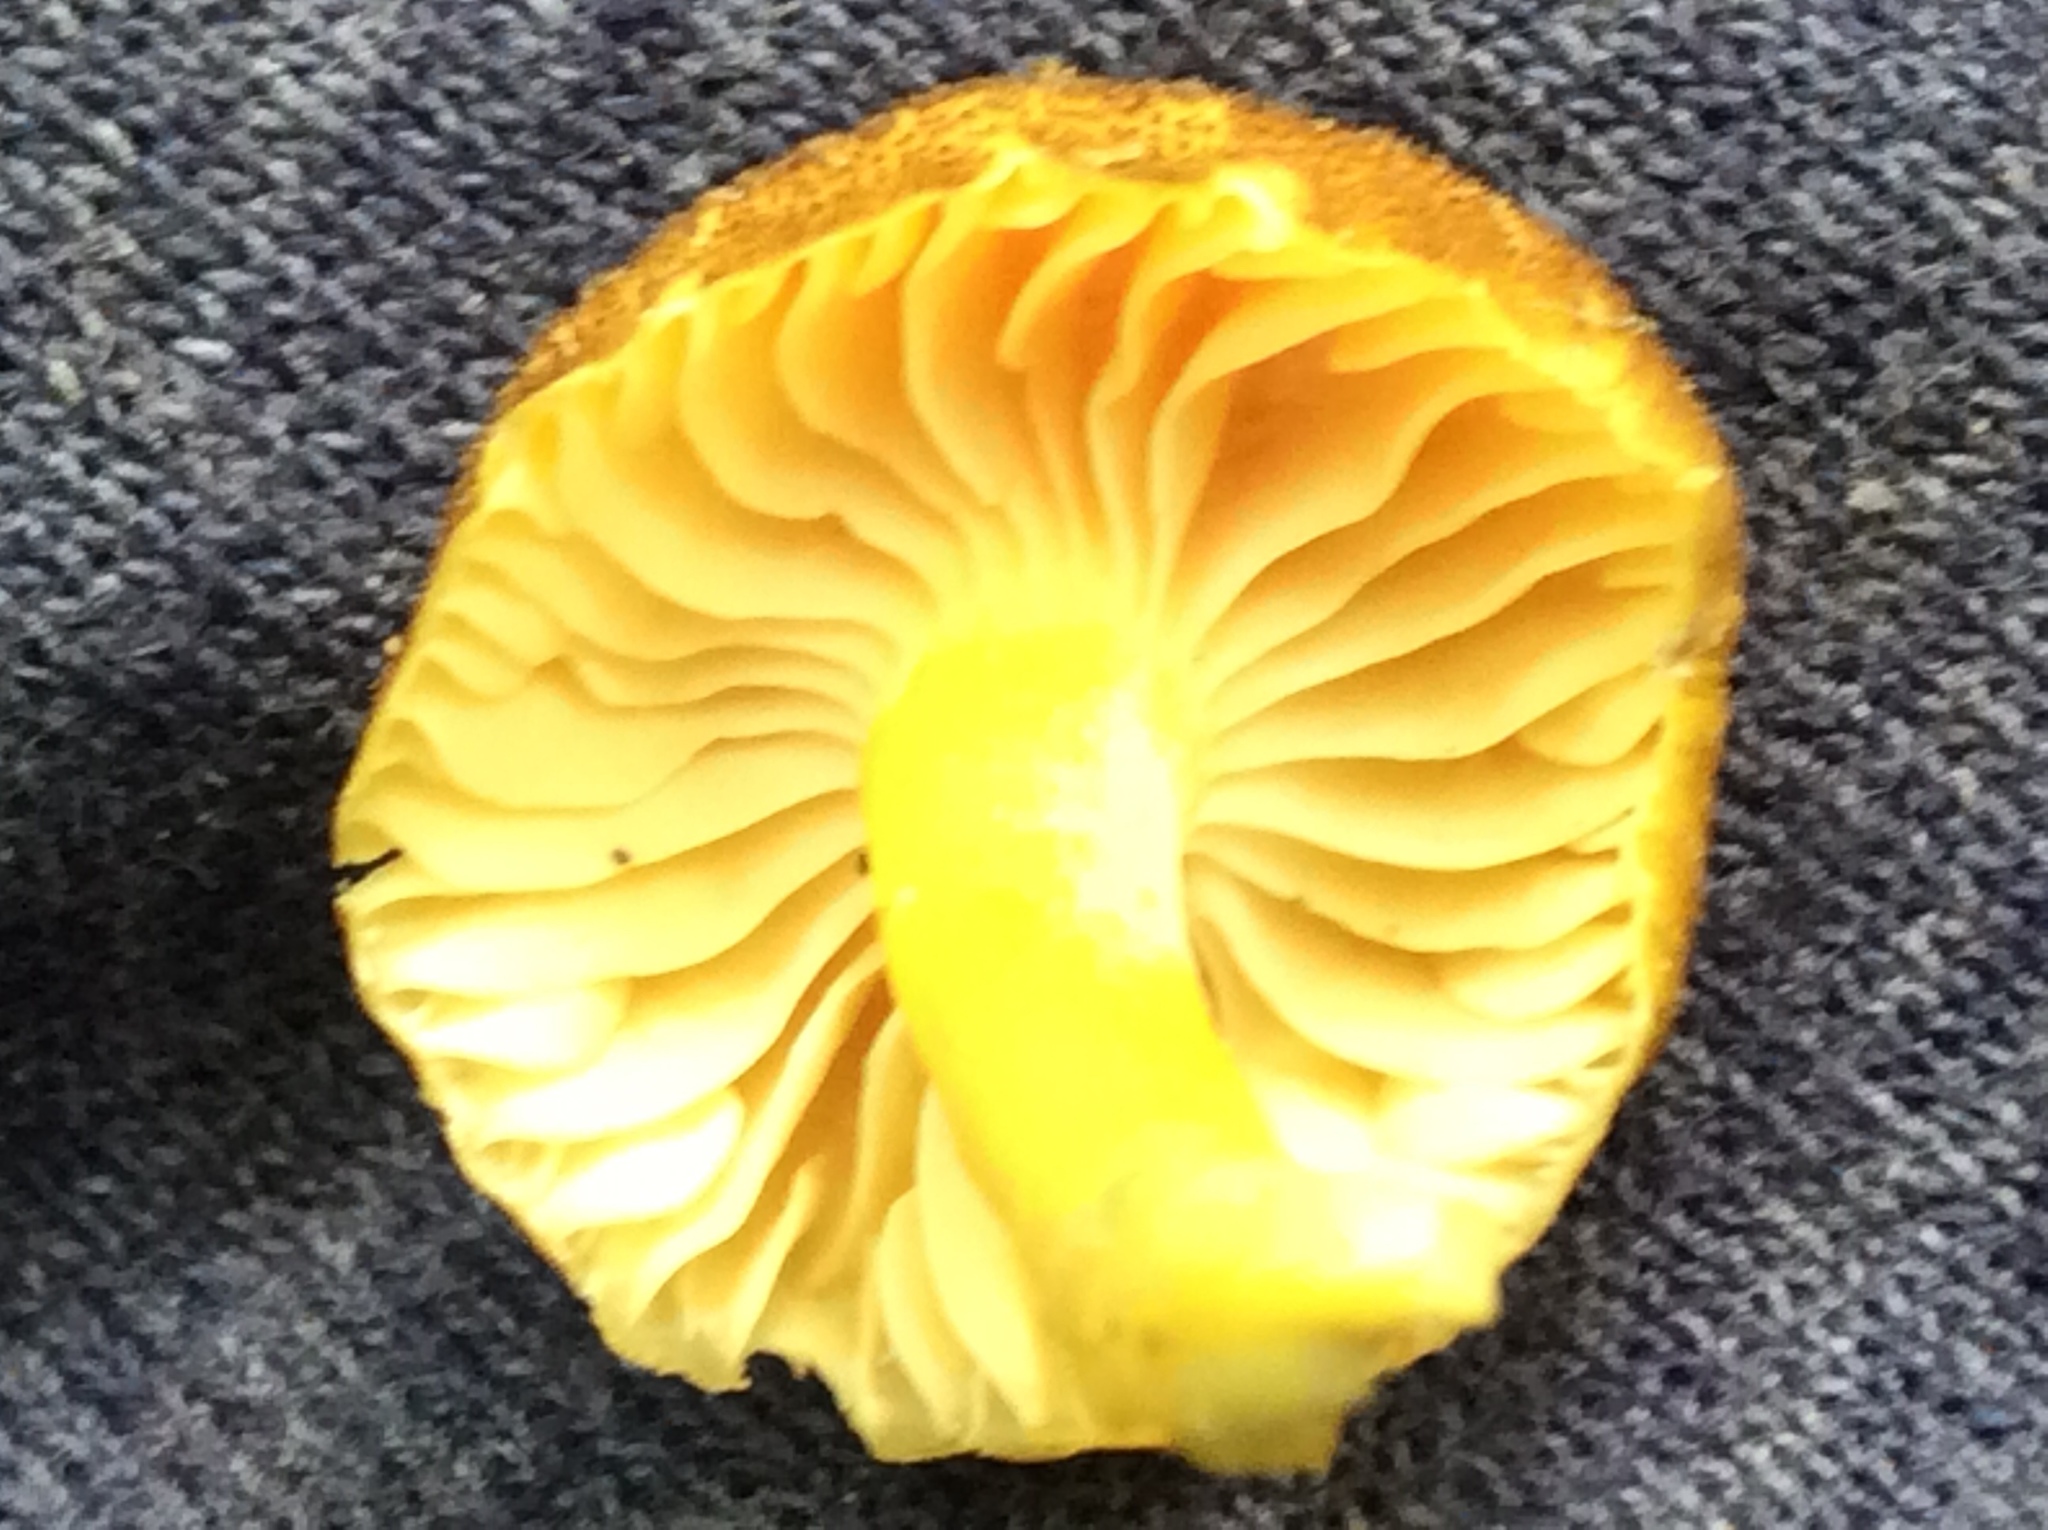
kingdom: Fungi
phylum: Basidiomycota
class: Agaricomycetes
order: Agaricales
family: Hygrophoraceae
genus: Hygrocybe
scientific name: Hygrocybe caespitosa
